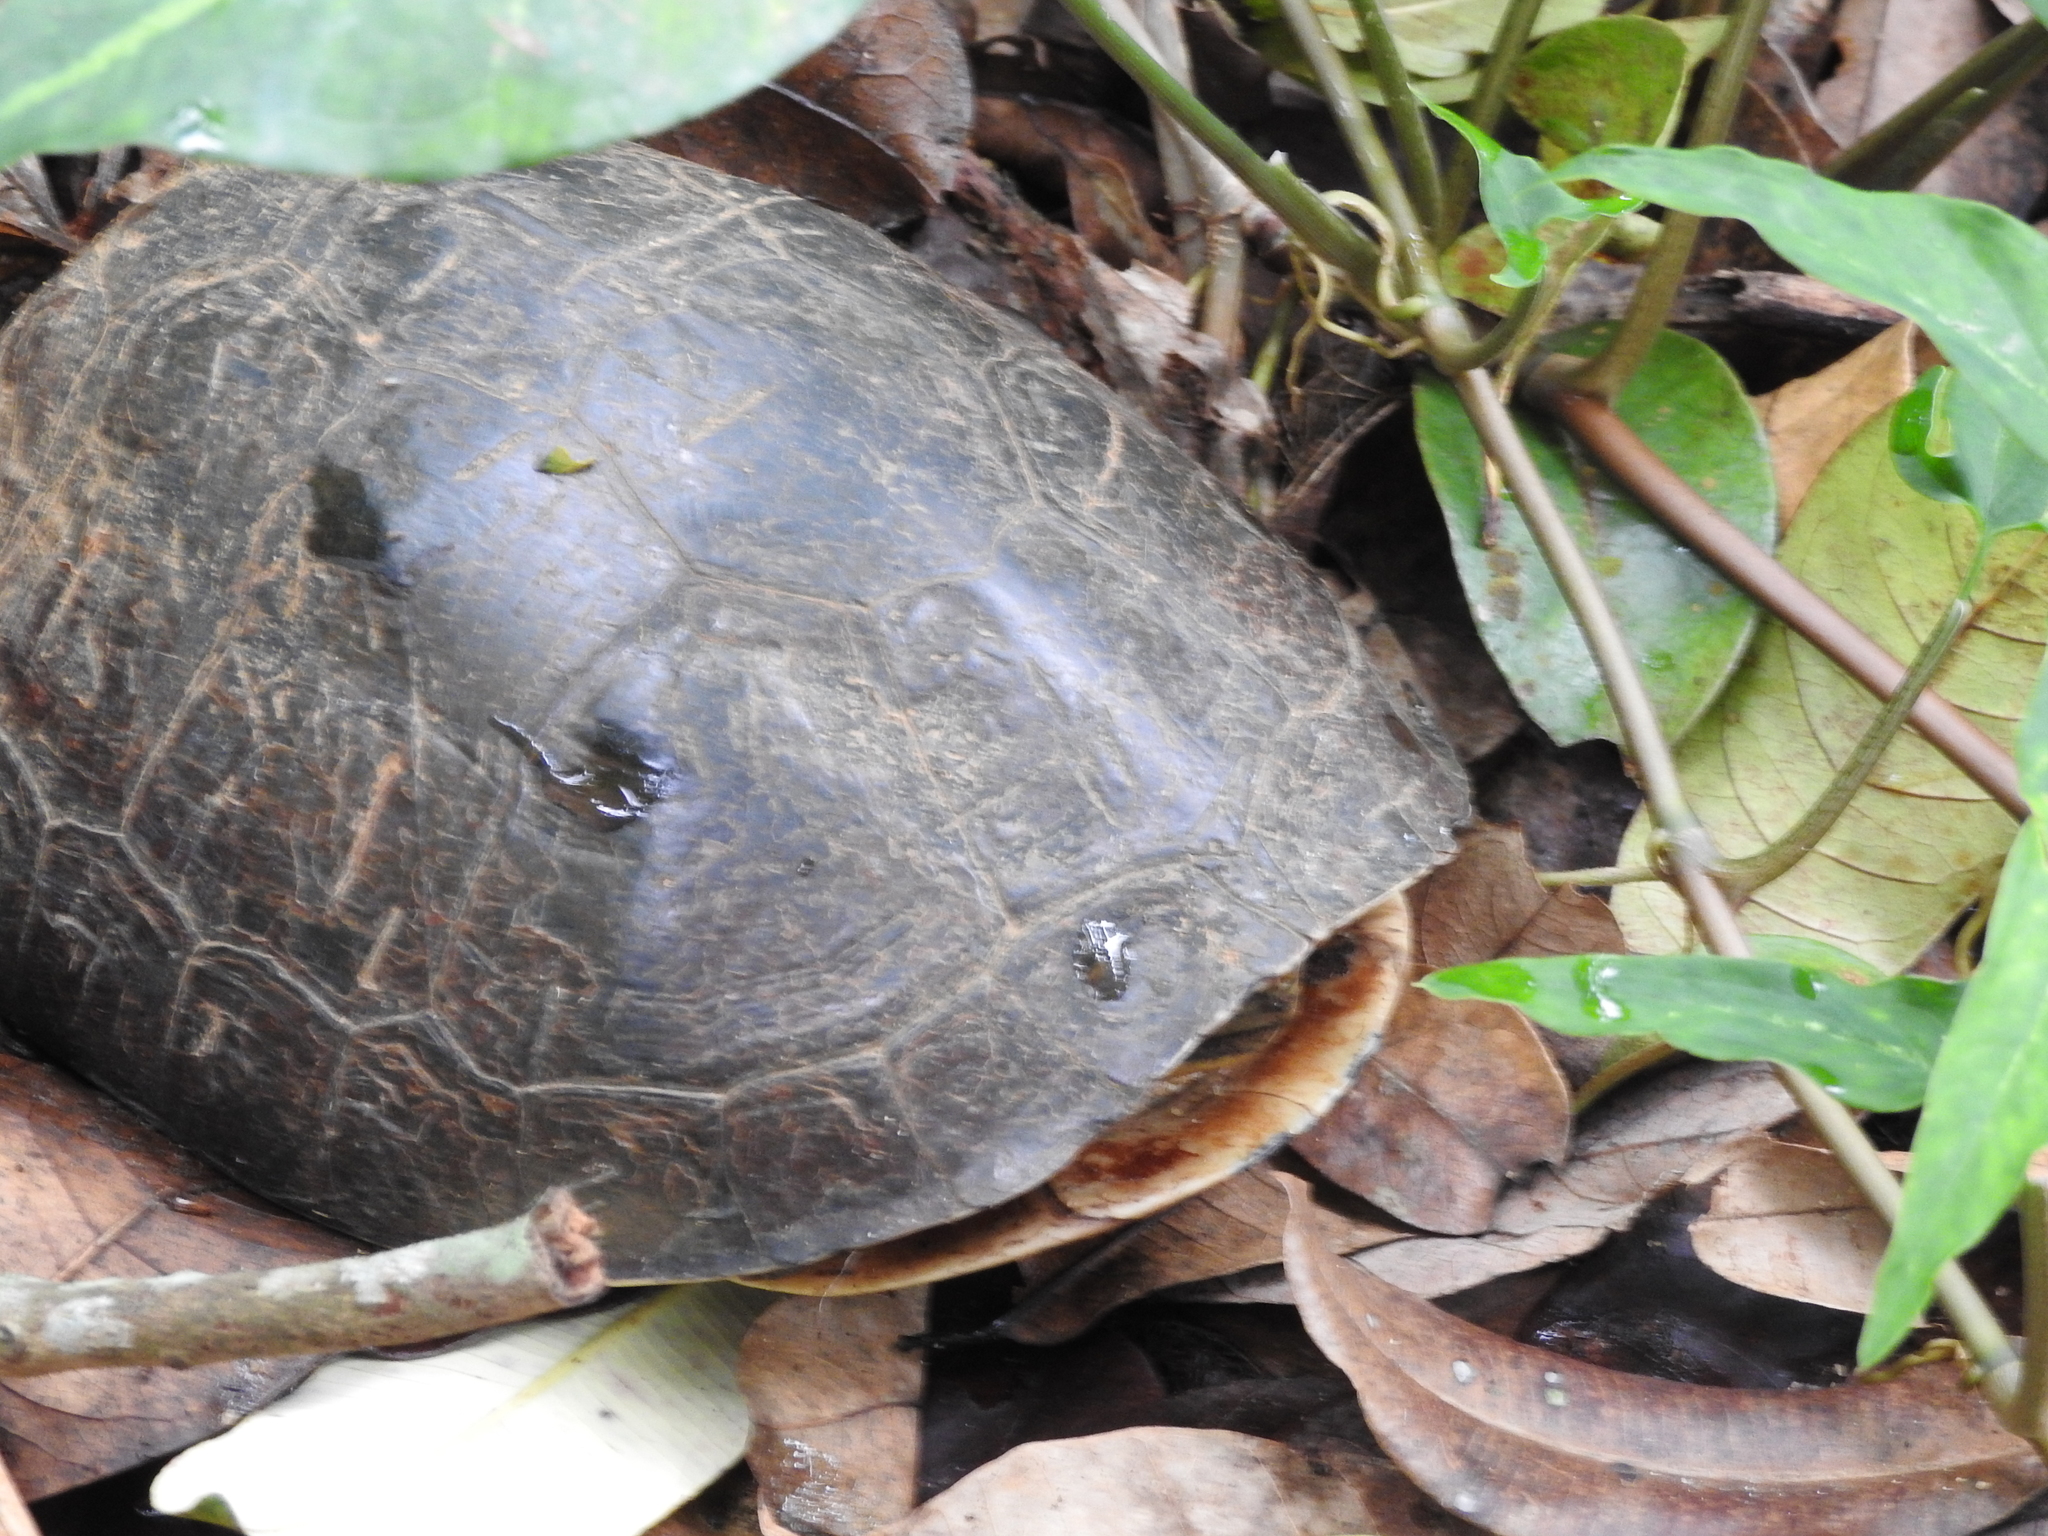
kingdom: Animalia
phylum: Chordata
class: Testudines
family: Geoemydidae
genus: Cuora
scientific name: Cuora
